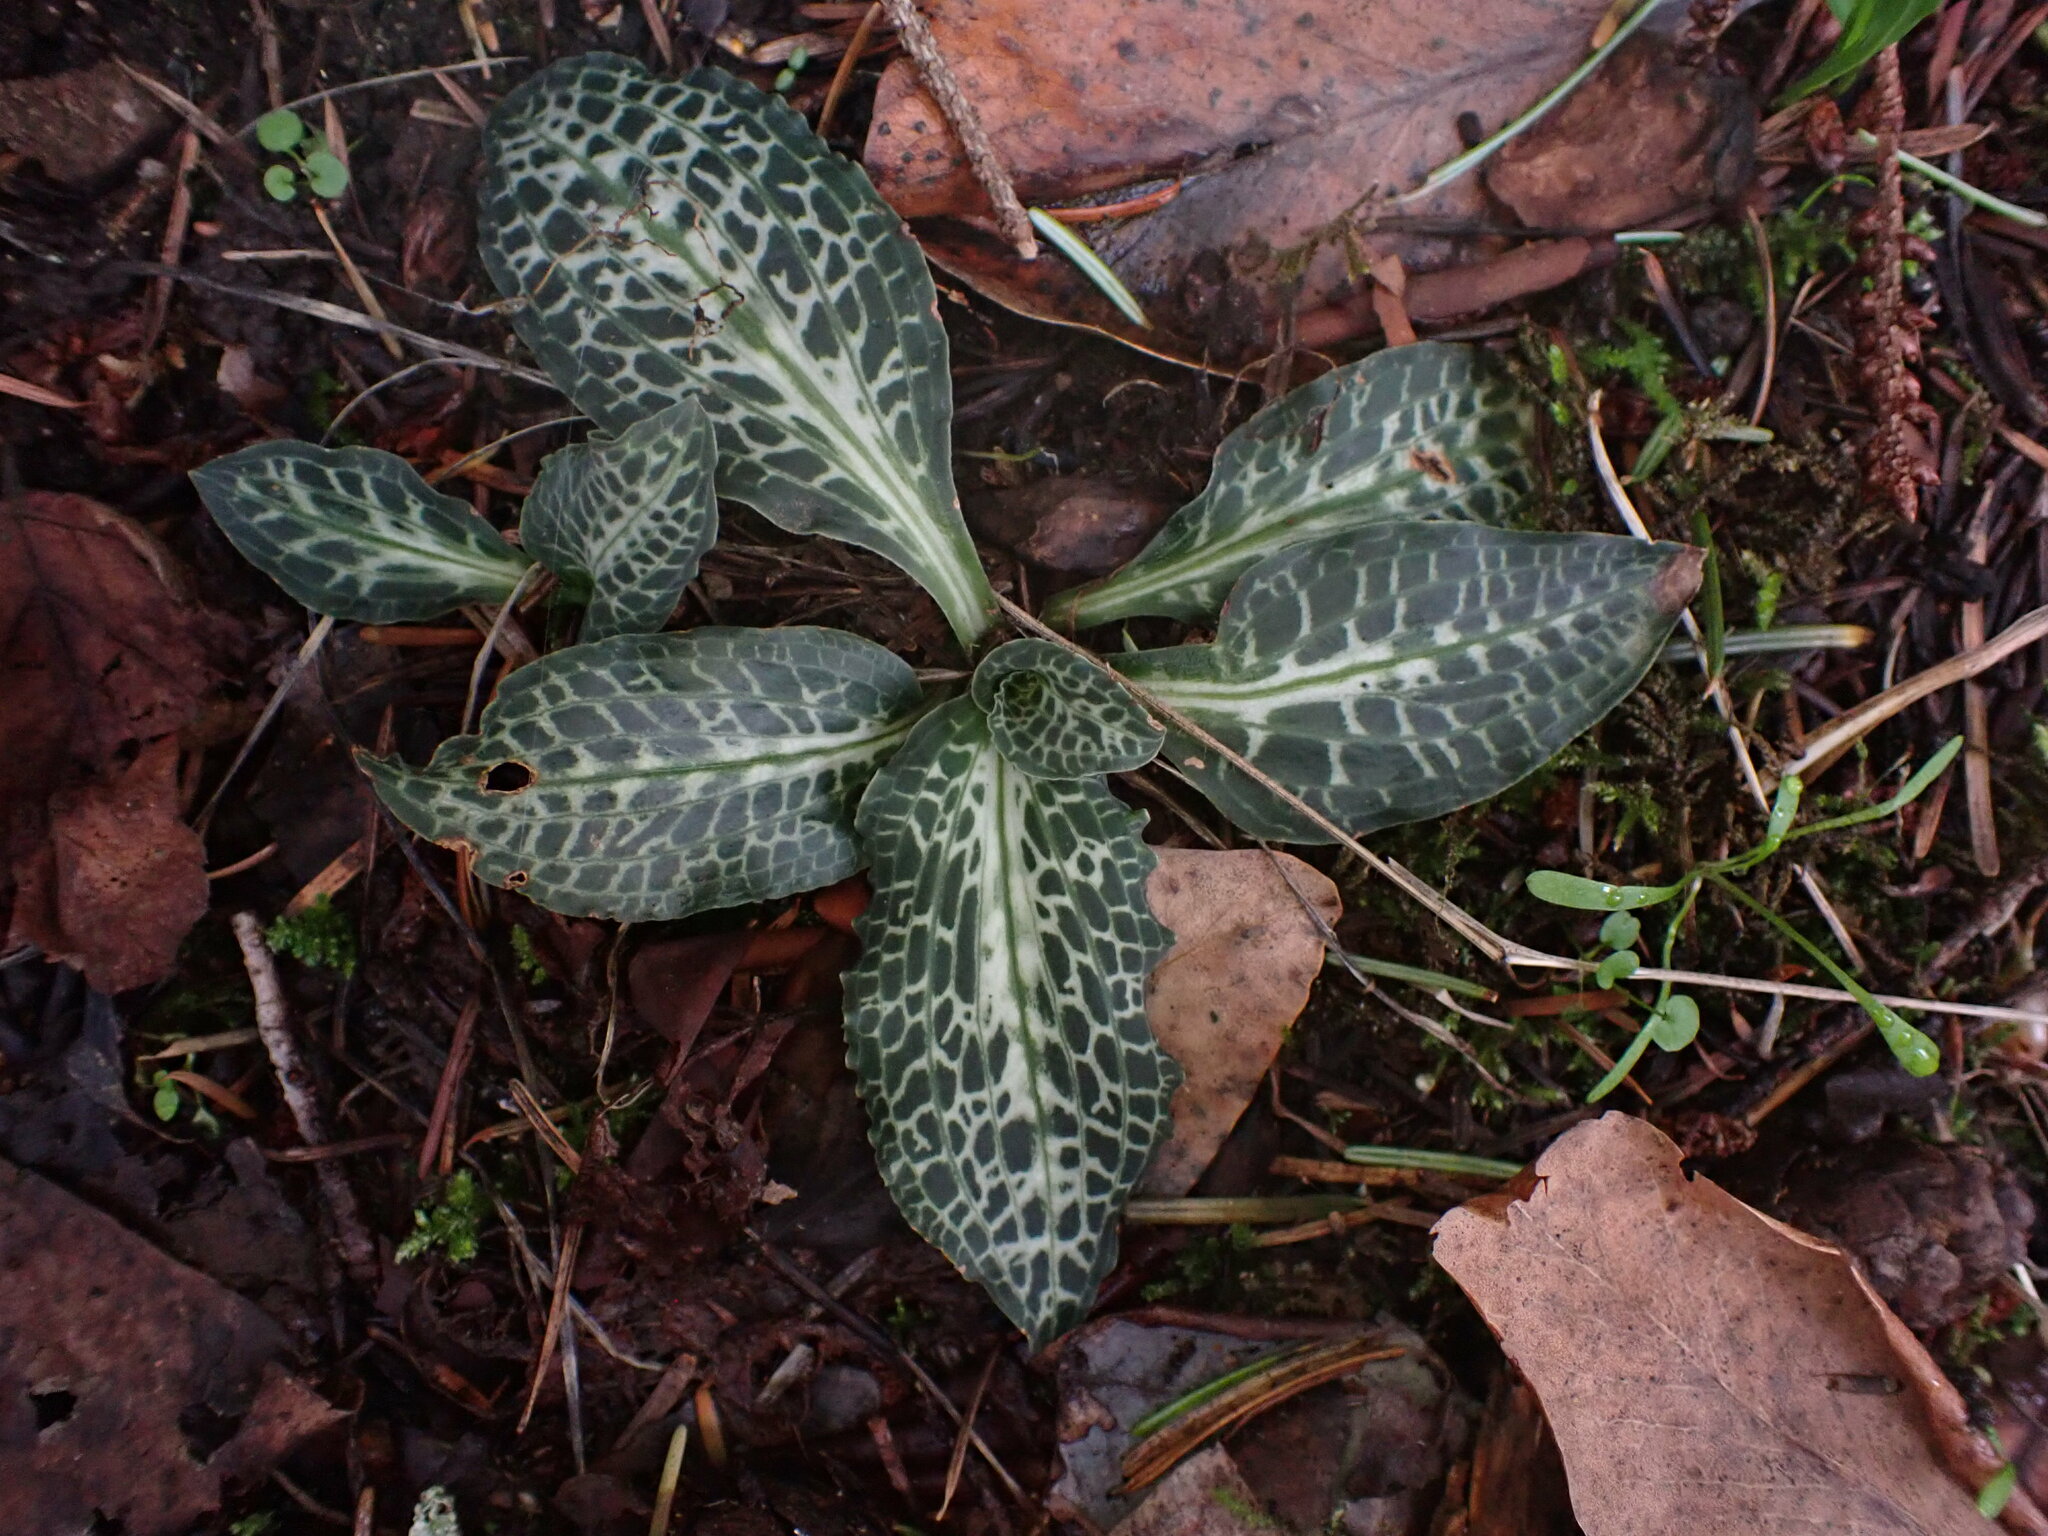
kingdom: Plantae
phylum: Tracheophyta
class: Liliopsida
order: Asparagales
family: Orchidaceae
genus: Goodyera
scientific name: Goodyera oblongifolia
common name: Giant rattlesnake-plantain
